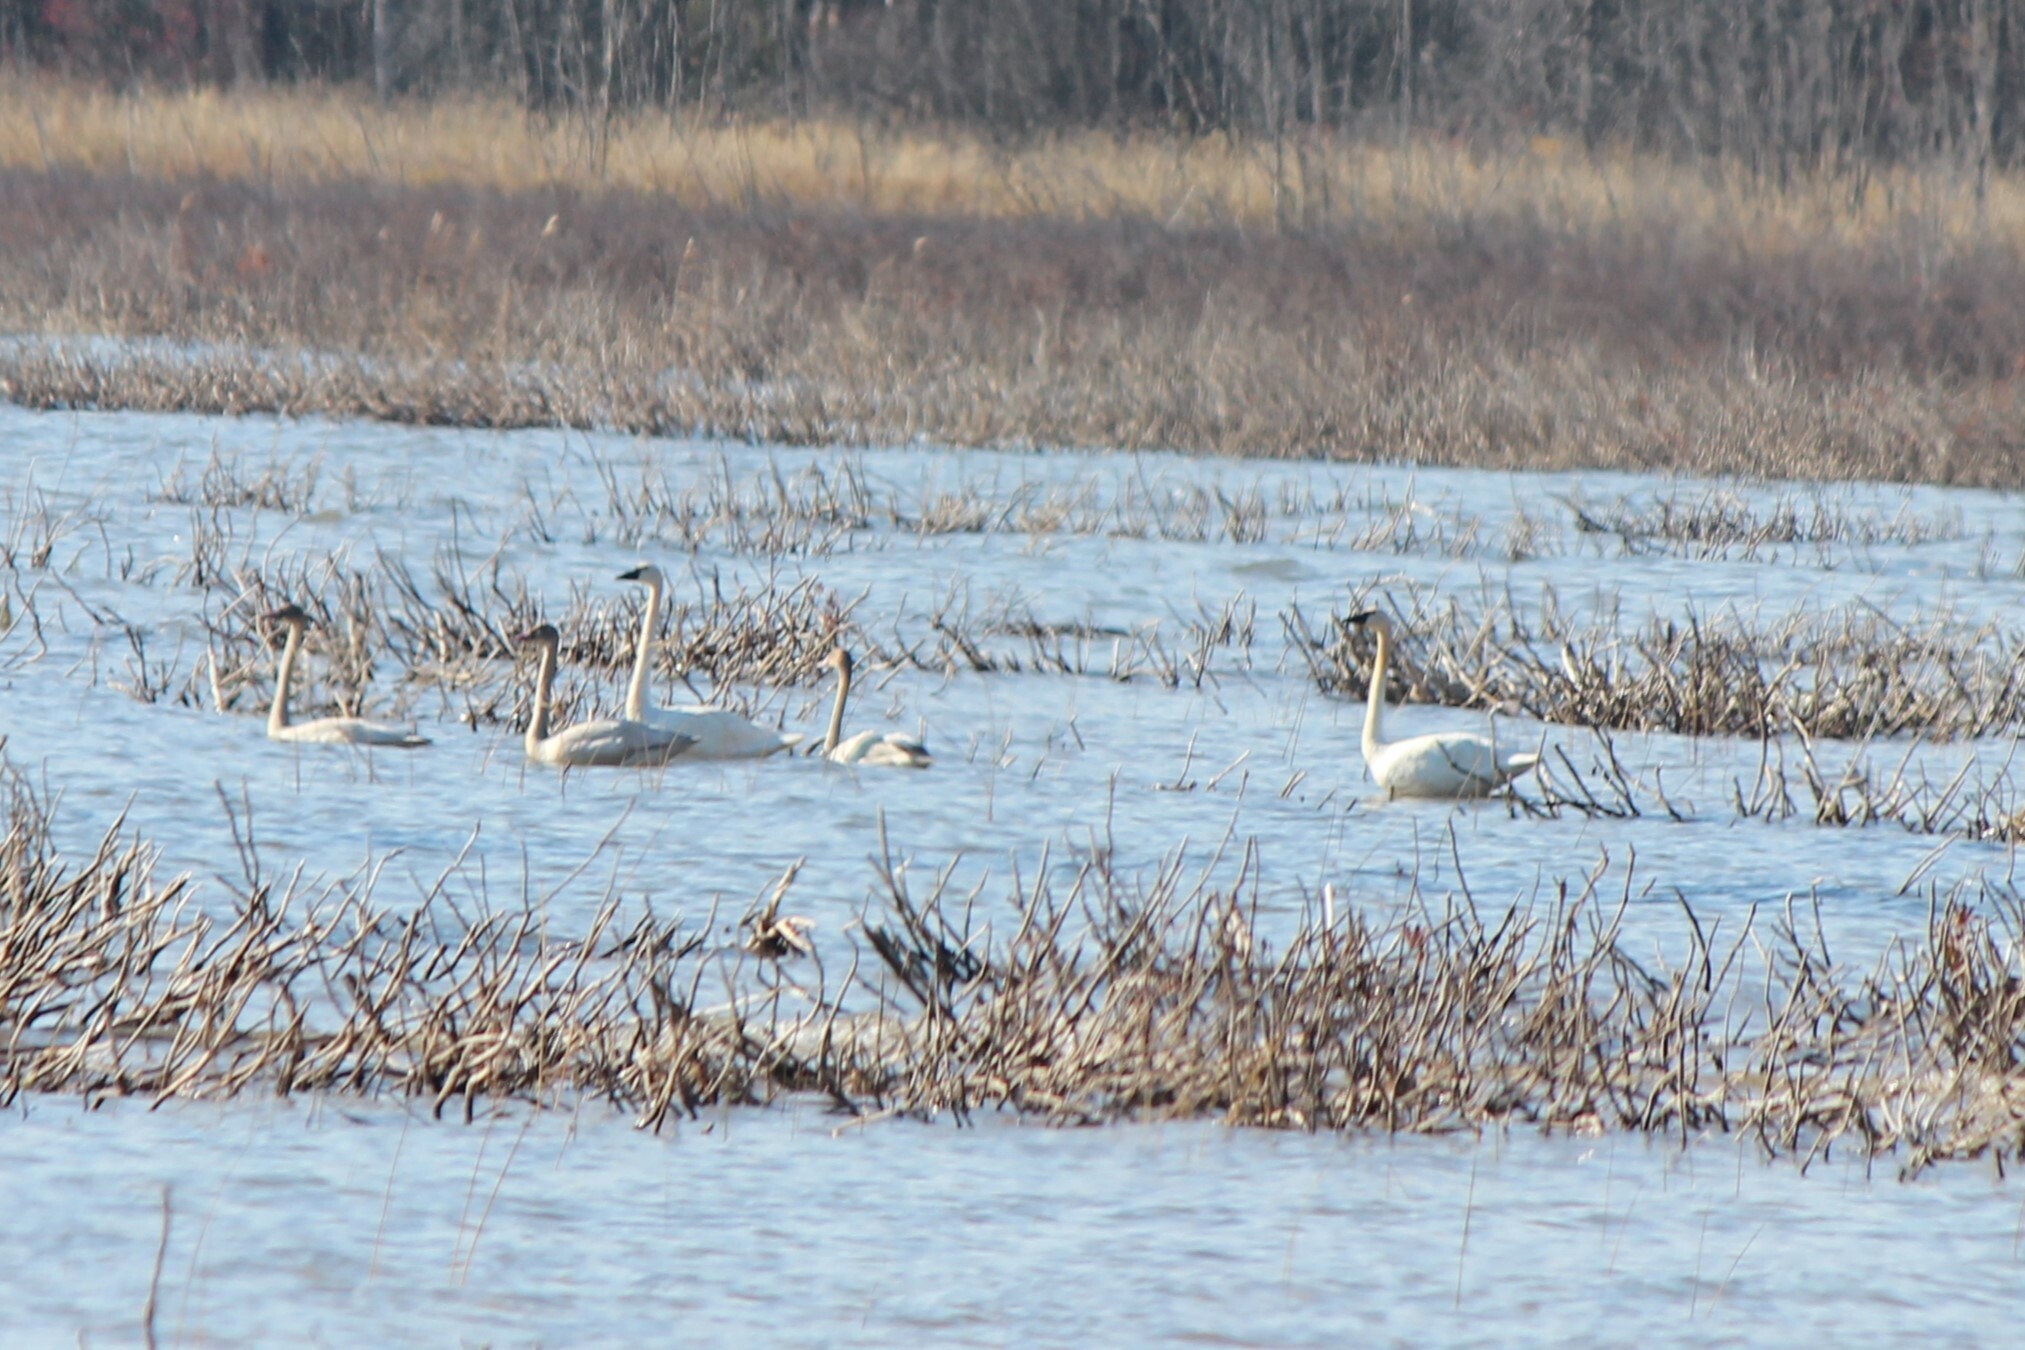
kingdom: Animalia
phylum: Chordata
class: Aves
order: Anseriformes
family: Anatidae
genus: Cygnus
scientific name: Cygnus columbianus
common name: Tundra swan
